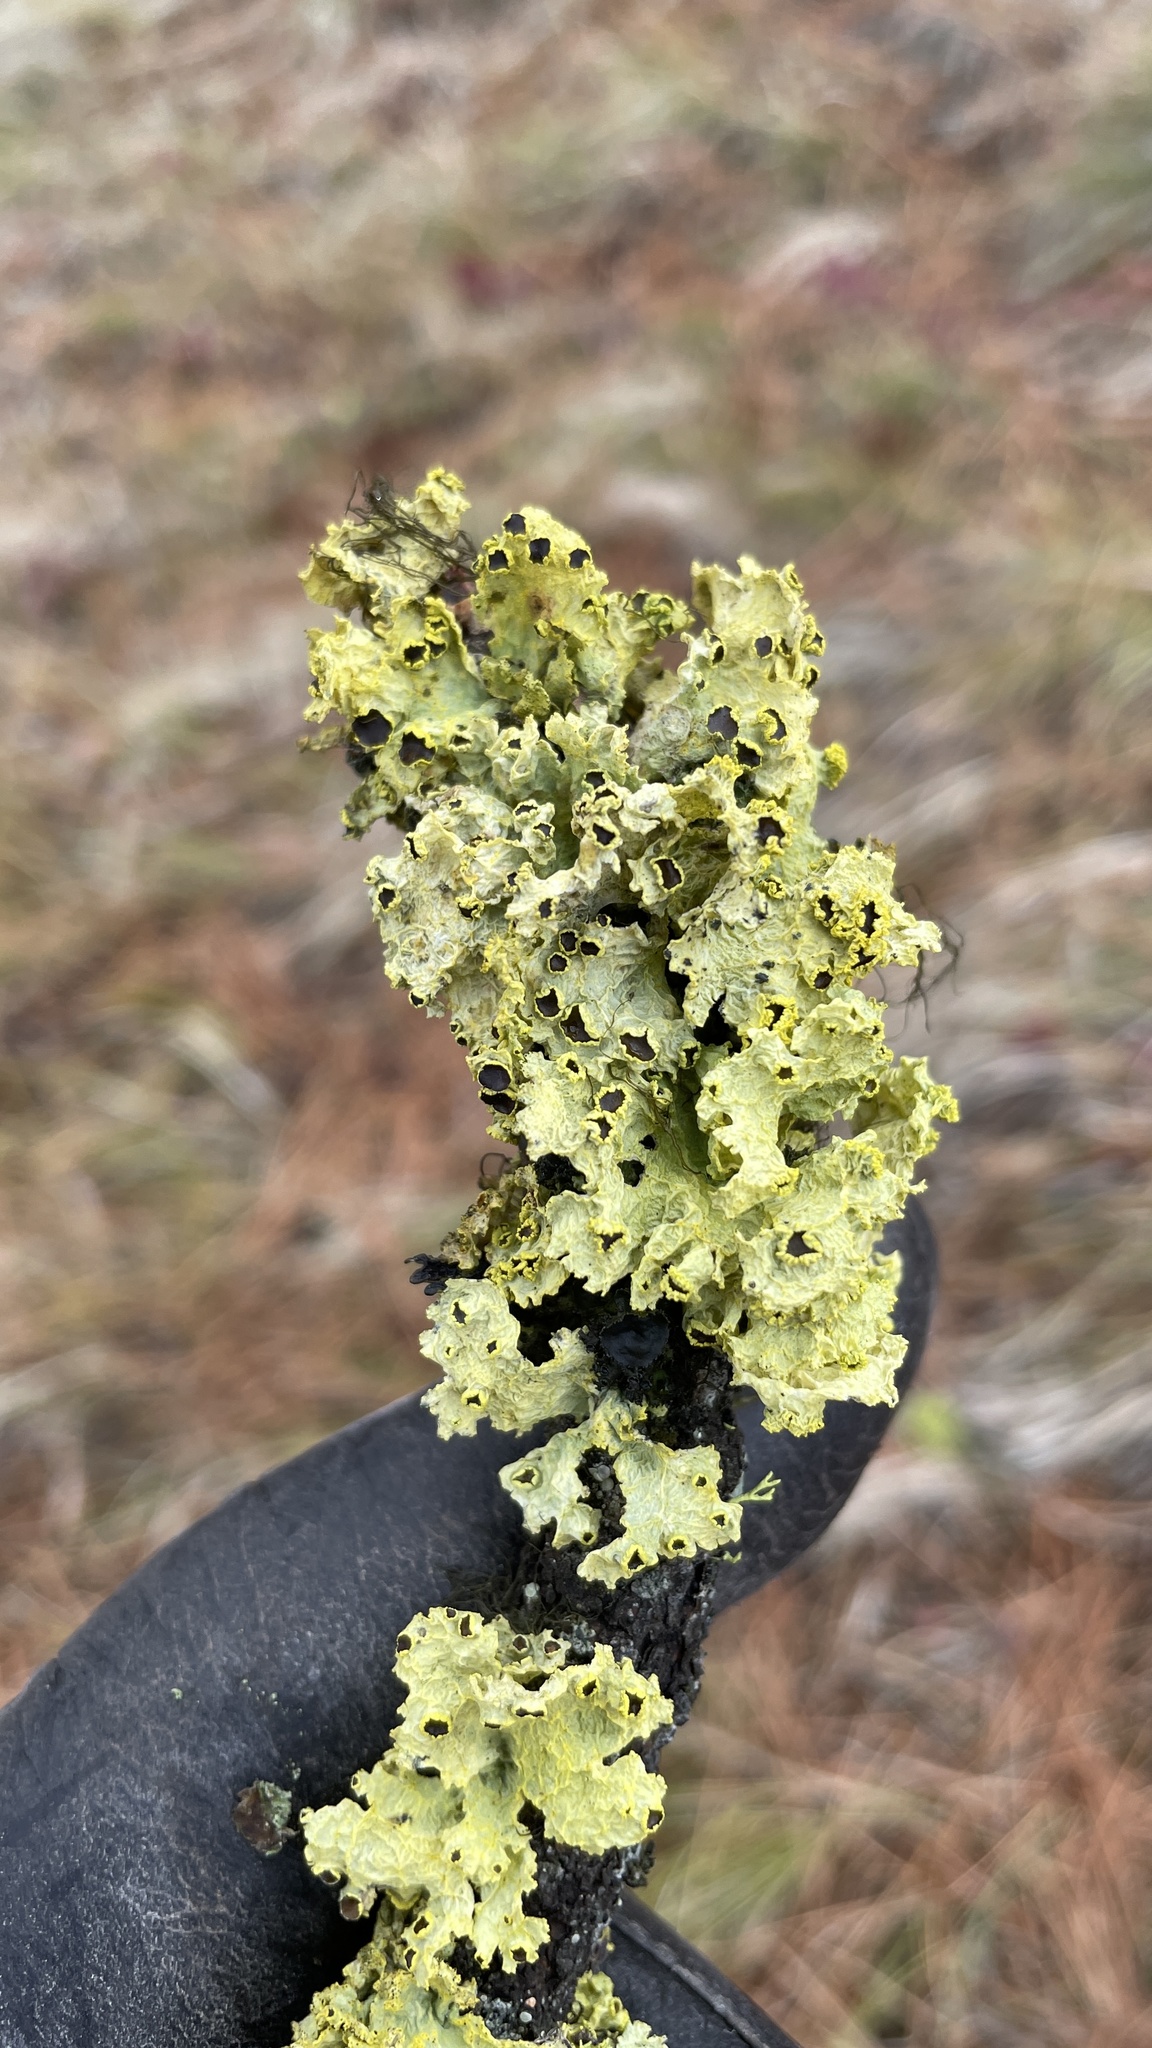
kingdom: Fungi
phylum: Ascomycota
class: Lecanoromycetes
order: Lecanorales
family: Parmeliaceae
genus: Vulpicida
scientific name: Vulpicida canadensis
